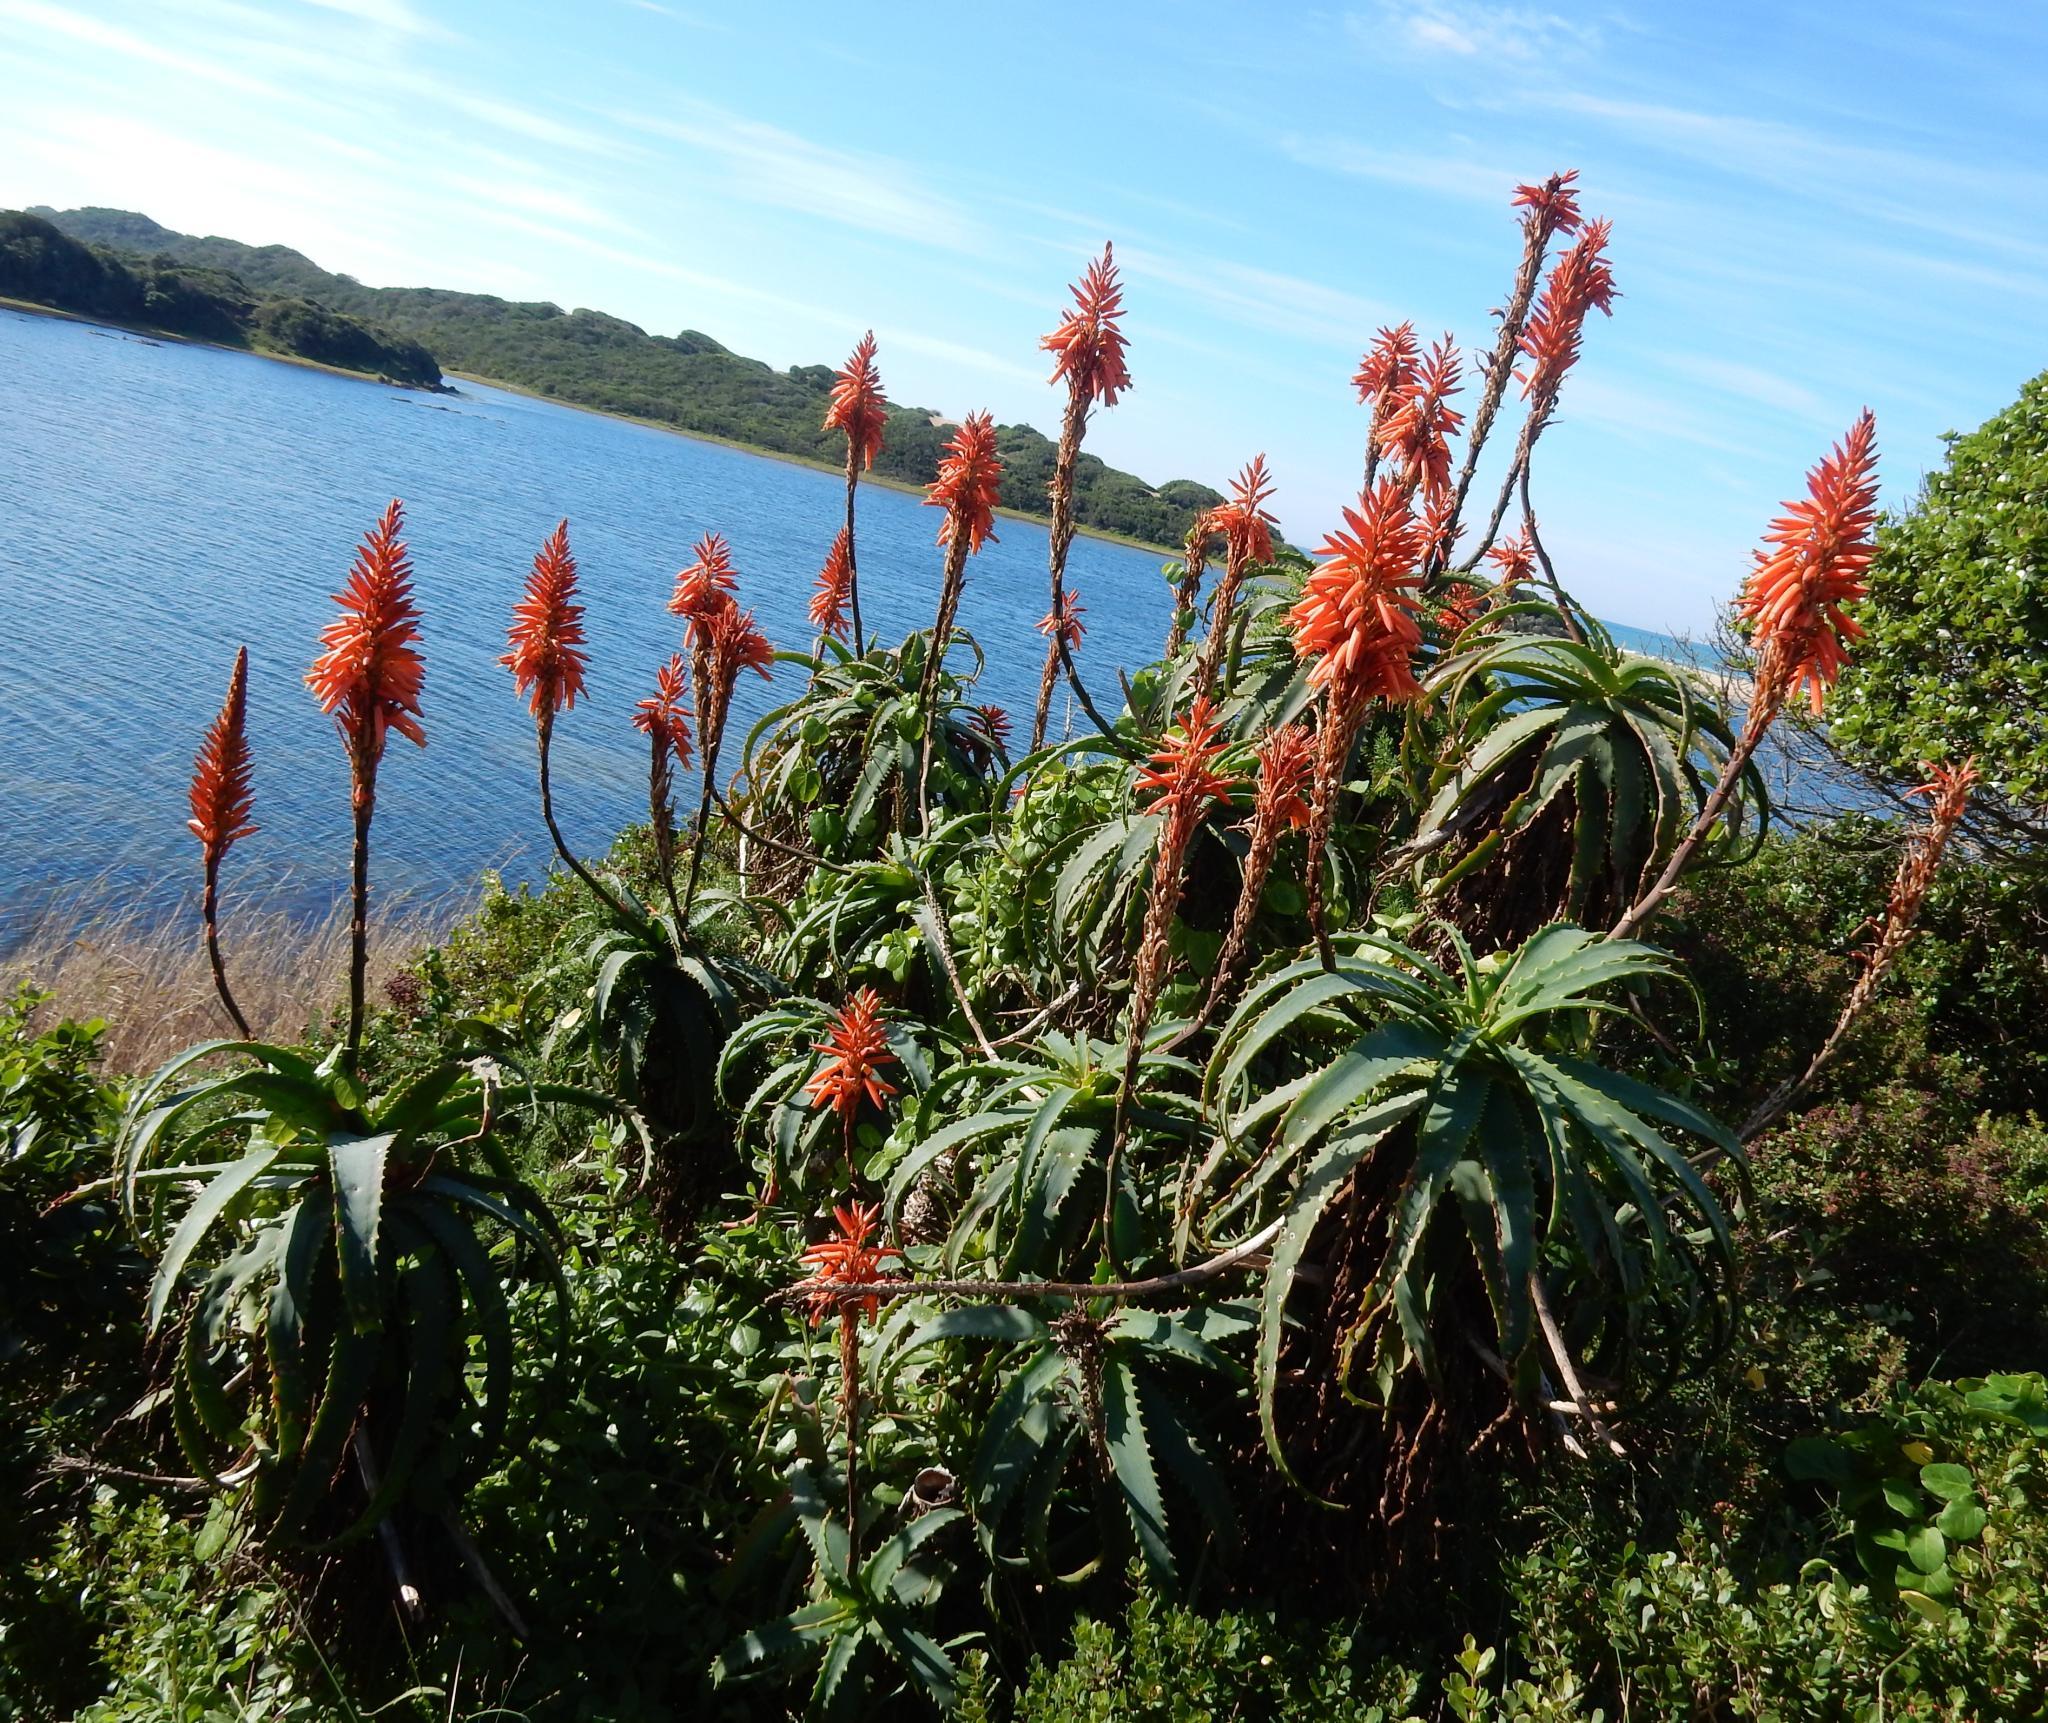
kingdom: Plantae
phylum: Tracheophyta
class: Liliopsida
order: Asparagales
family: Asphodelaceae
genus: Aloe
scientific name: Aloe arborescens
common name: Candelabra aloe
